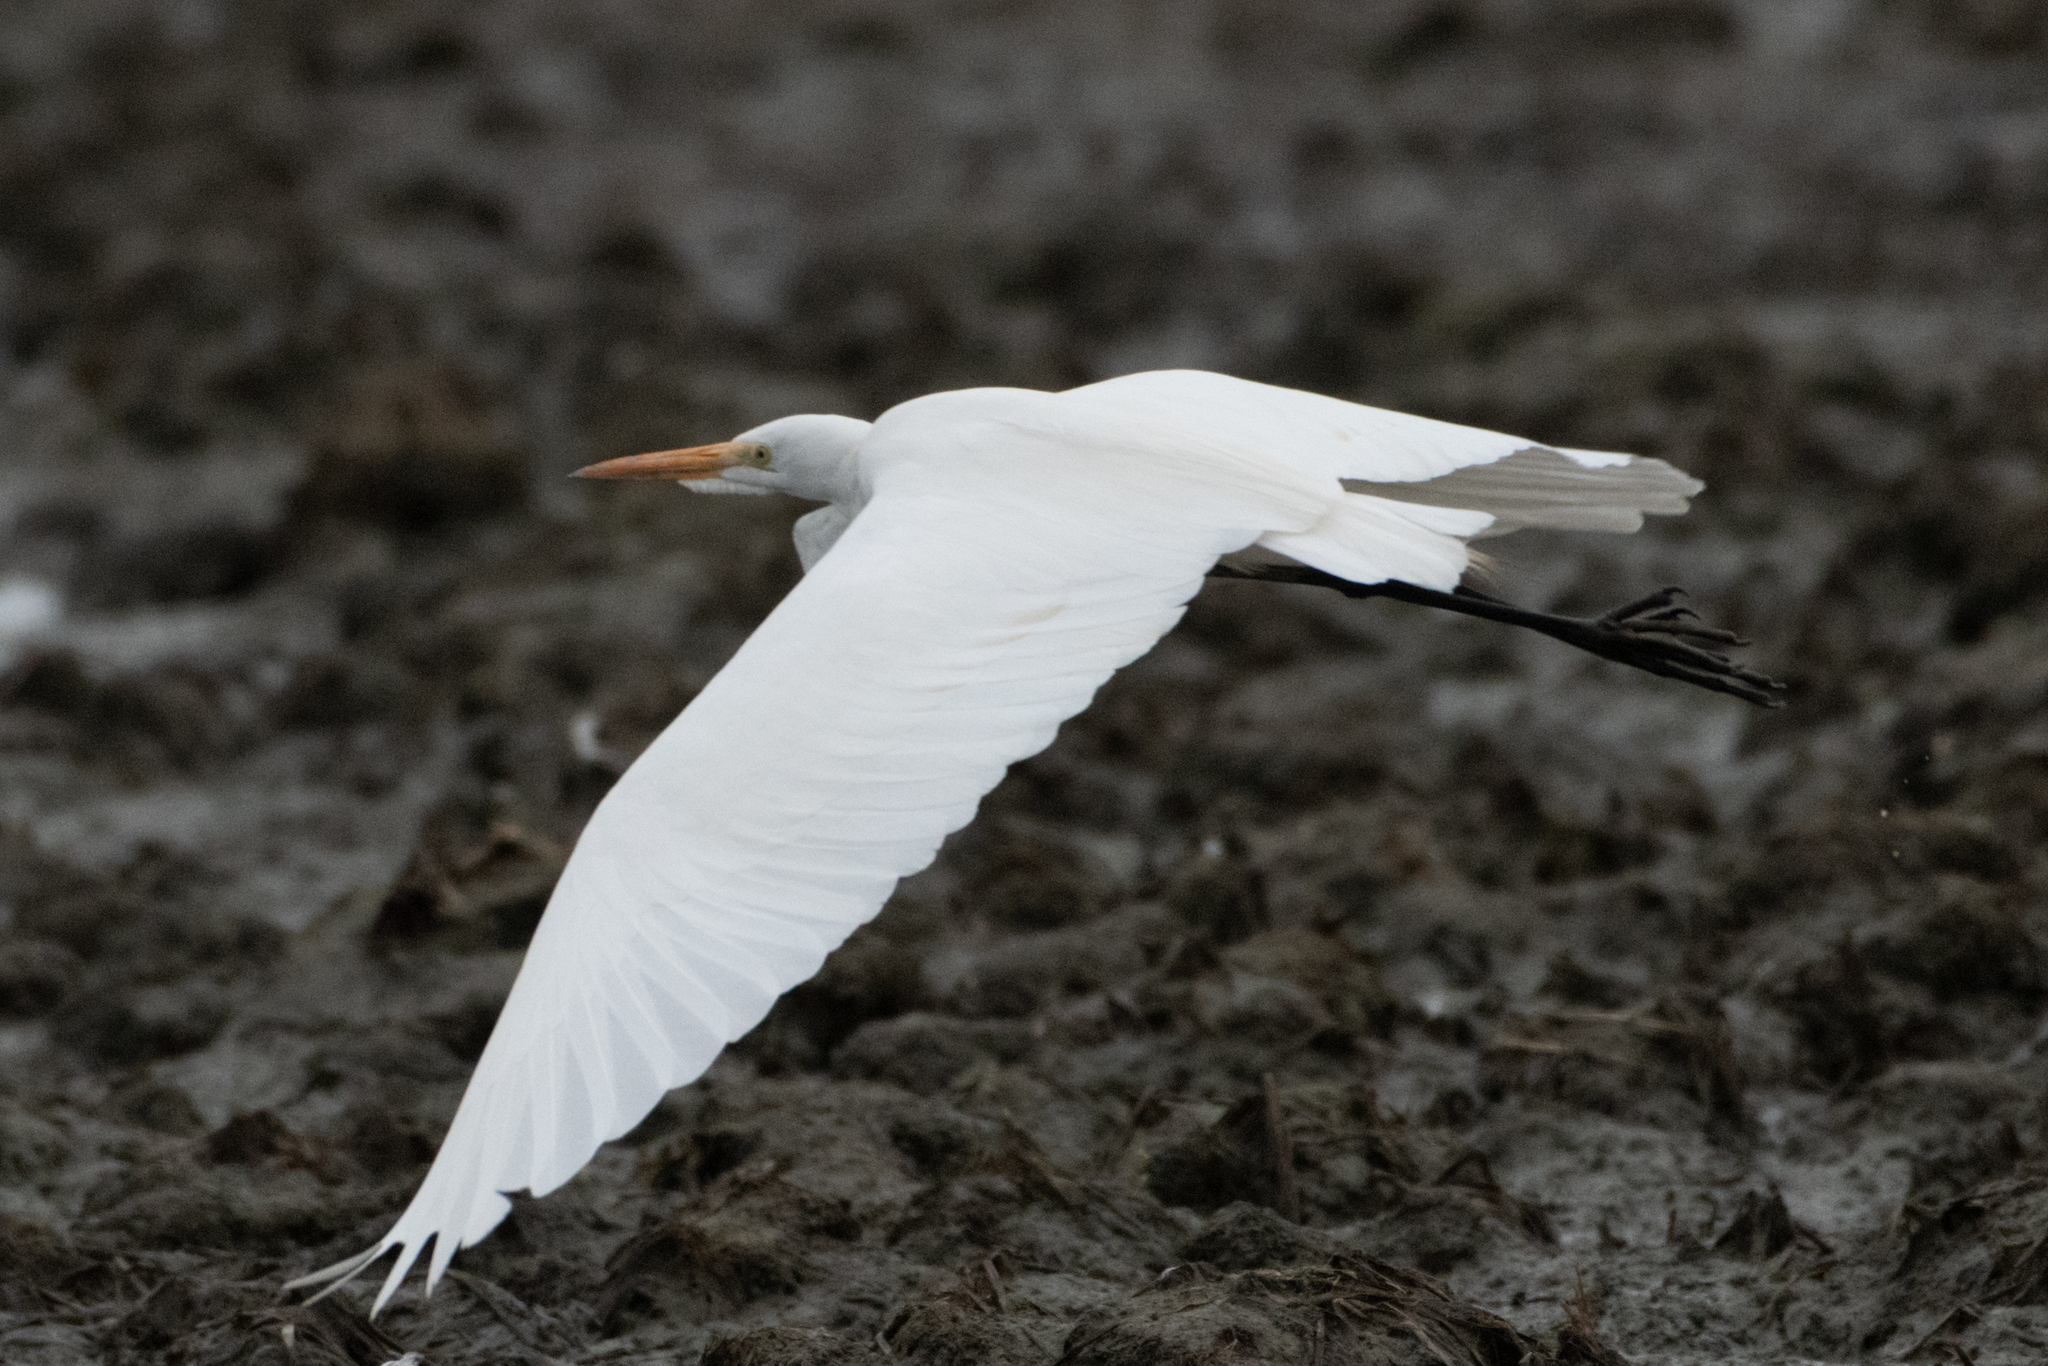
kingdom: Animalia
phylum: Chordata
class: Aves
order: Pelecaniformes
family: Ardeidae
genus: Ardea
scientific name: Ardea alba
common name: Great egret
